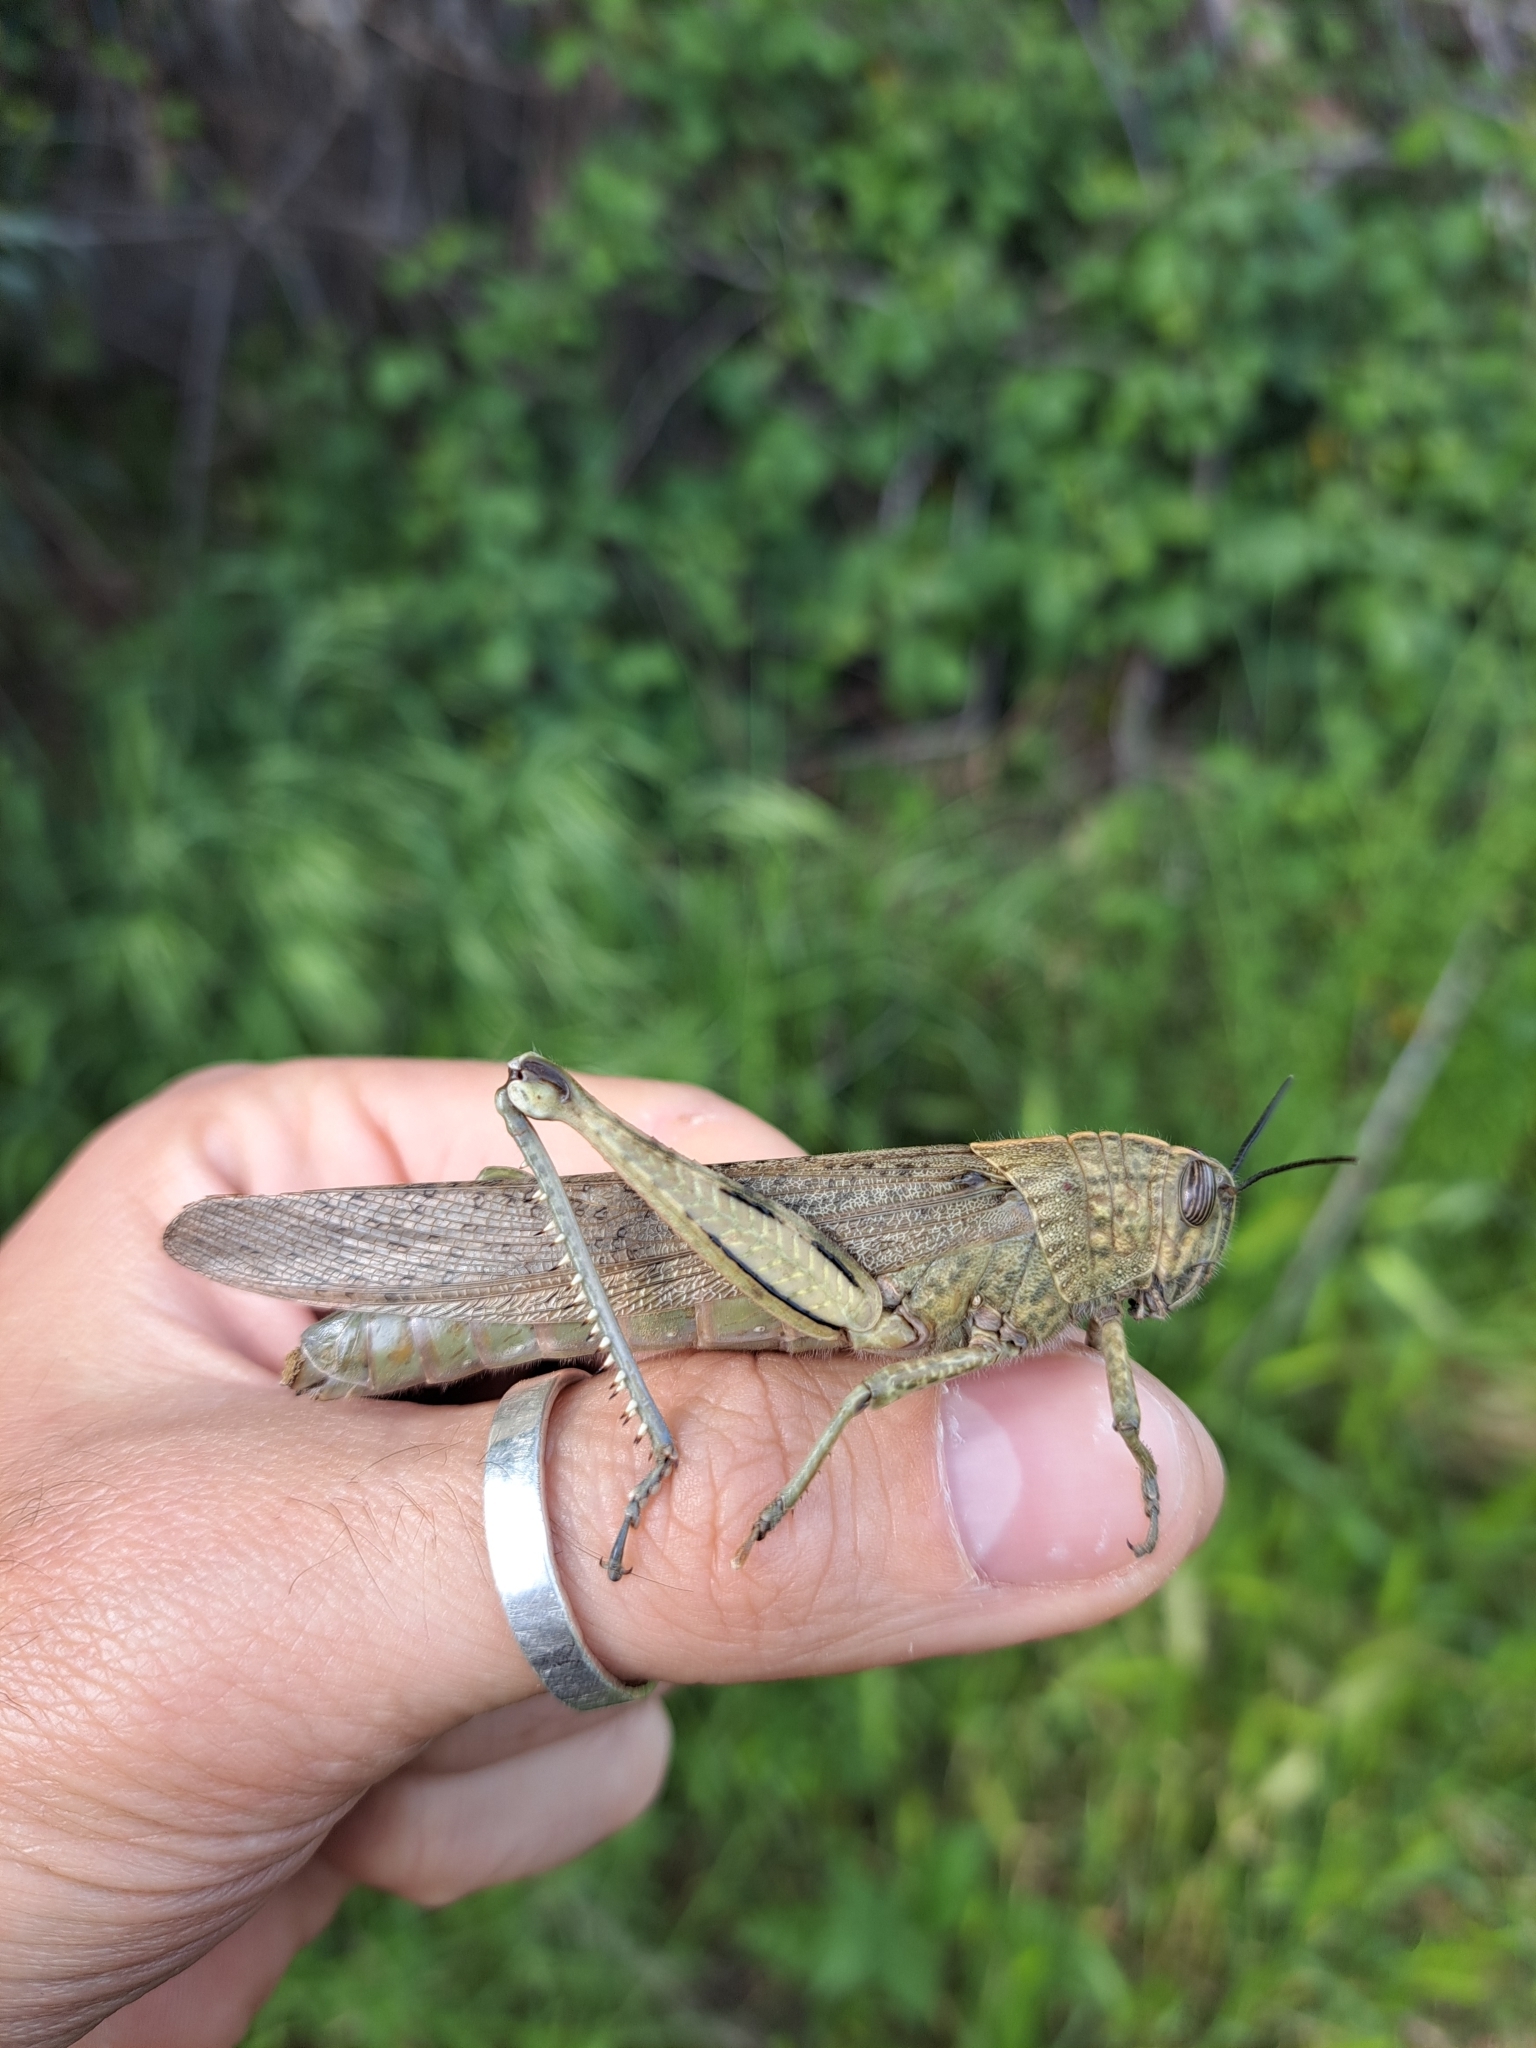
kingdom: Animalia
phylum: Arthropoda
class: Insecta
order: Orthoptera
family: Acrididae
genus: Anacridium
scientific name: Anacridium aegyptium
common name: Egyptian grasshopper
